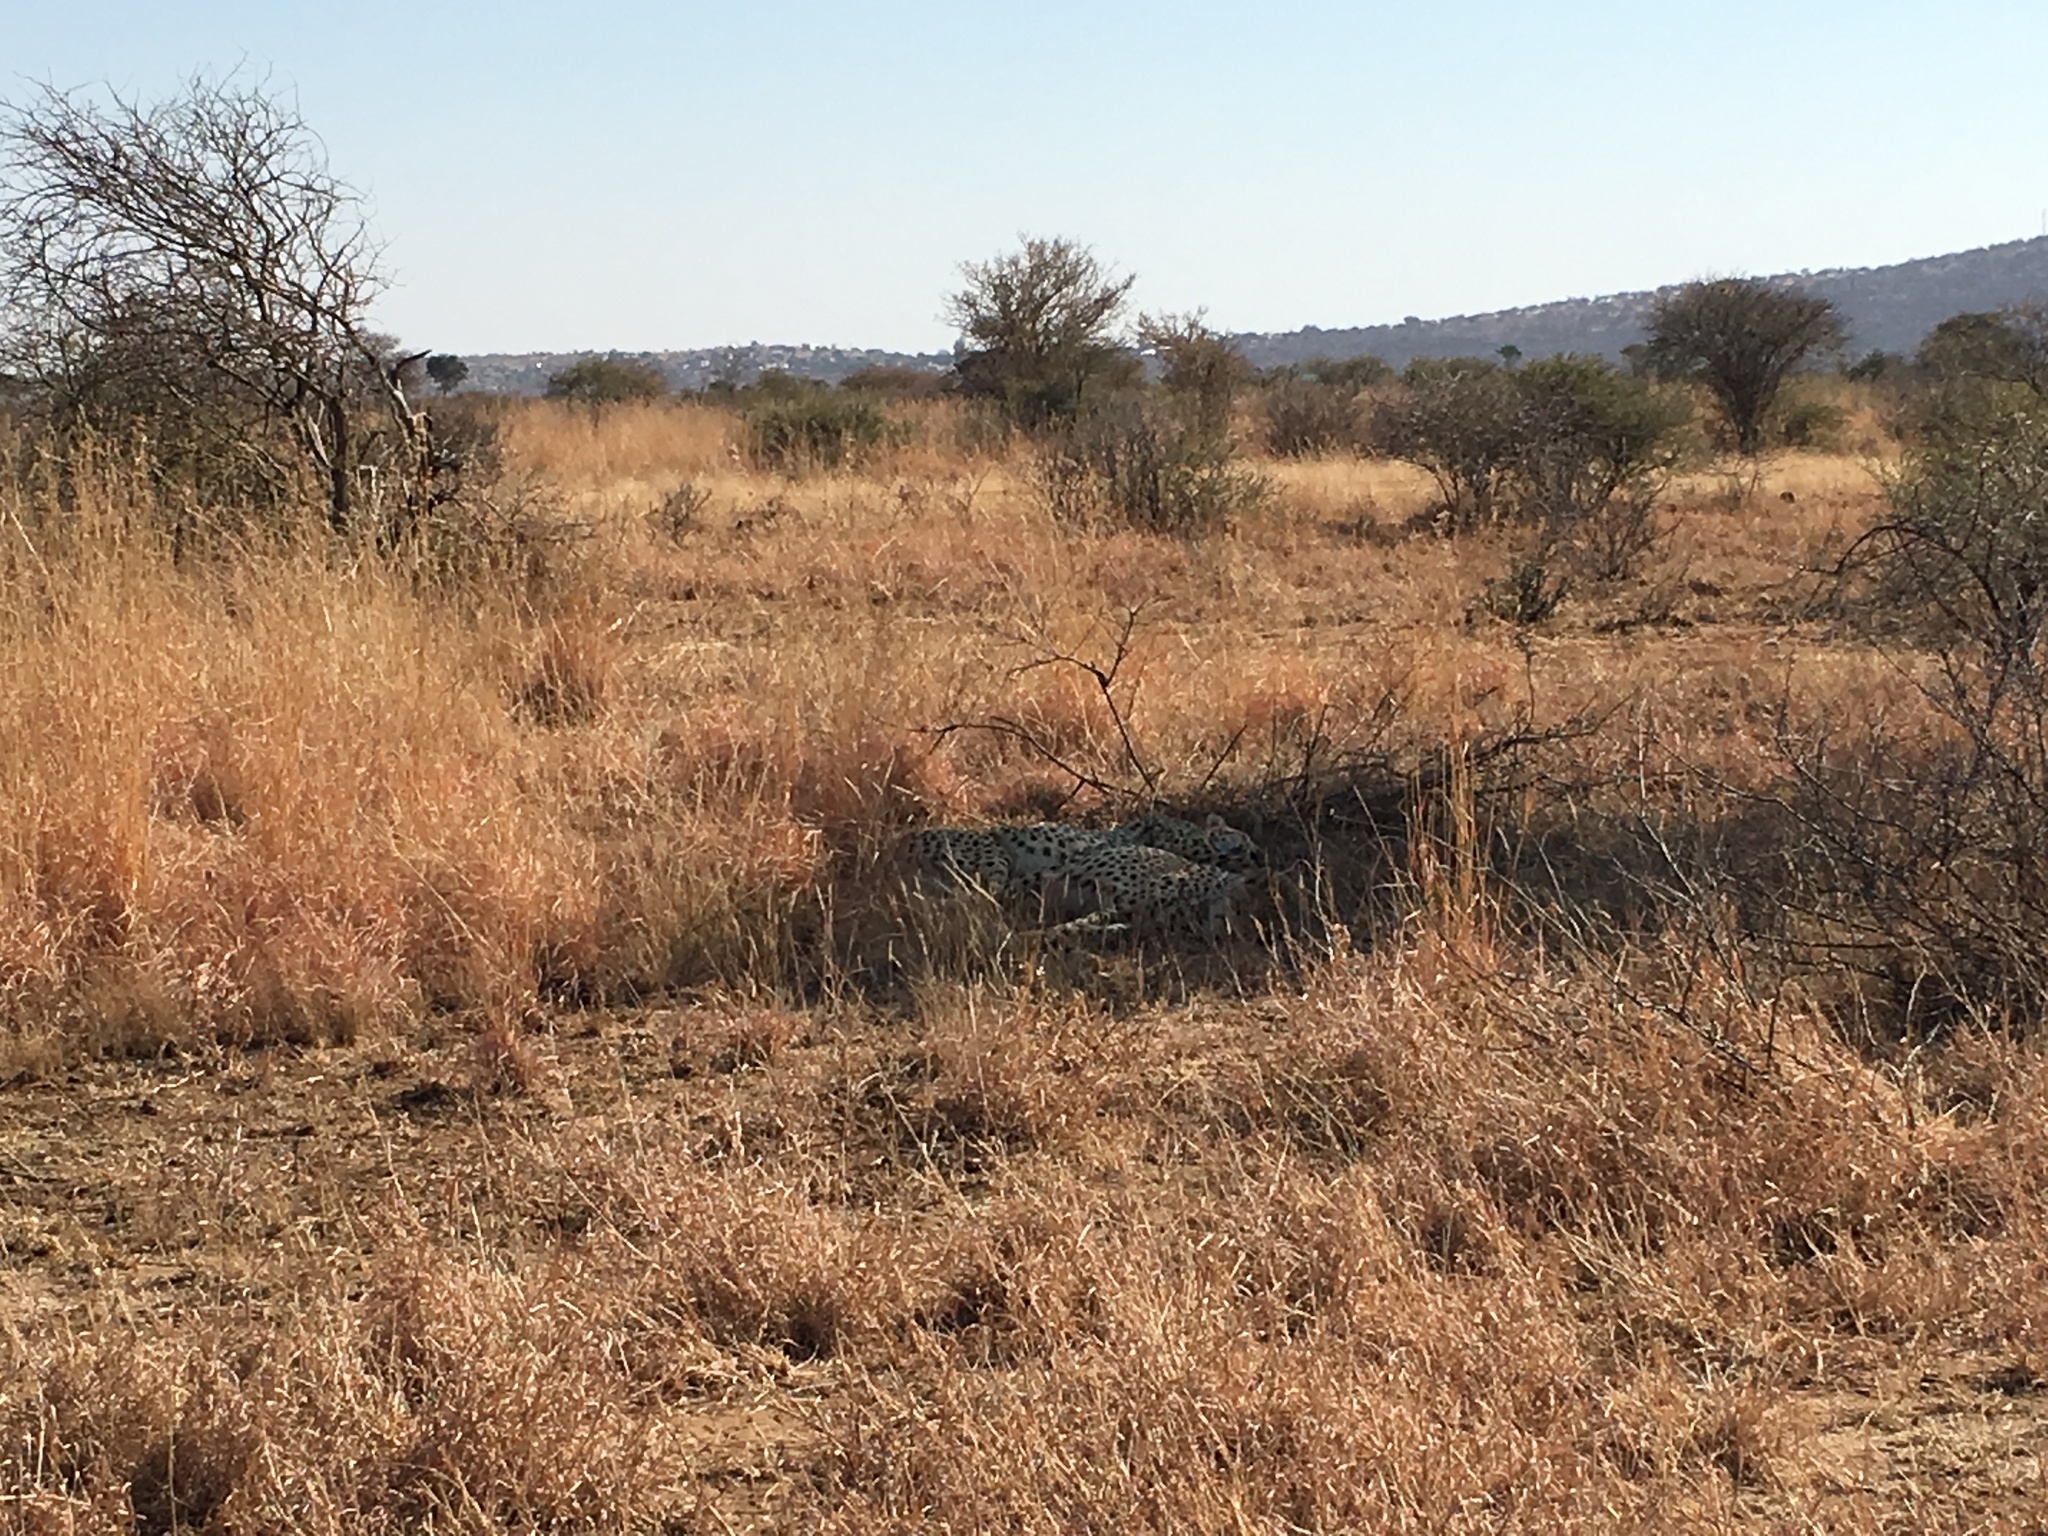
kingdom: Animalia
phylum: Chordata
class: Mammalia
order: Carnivora
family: Felidae
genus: Acinonyx
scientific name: Acinonyx jubatus
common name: Cheetah
